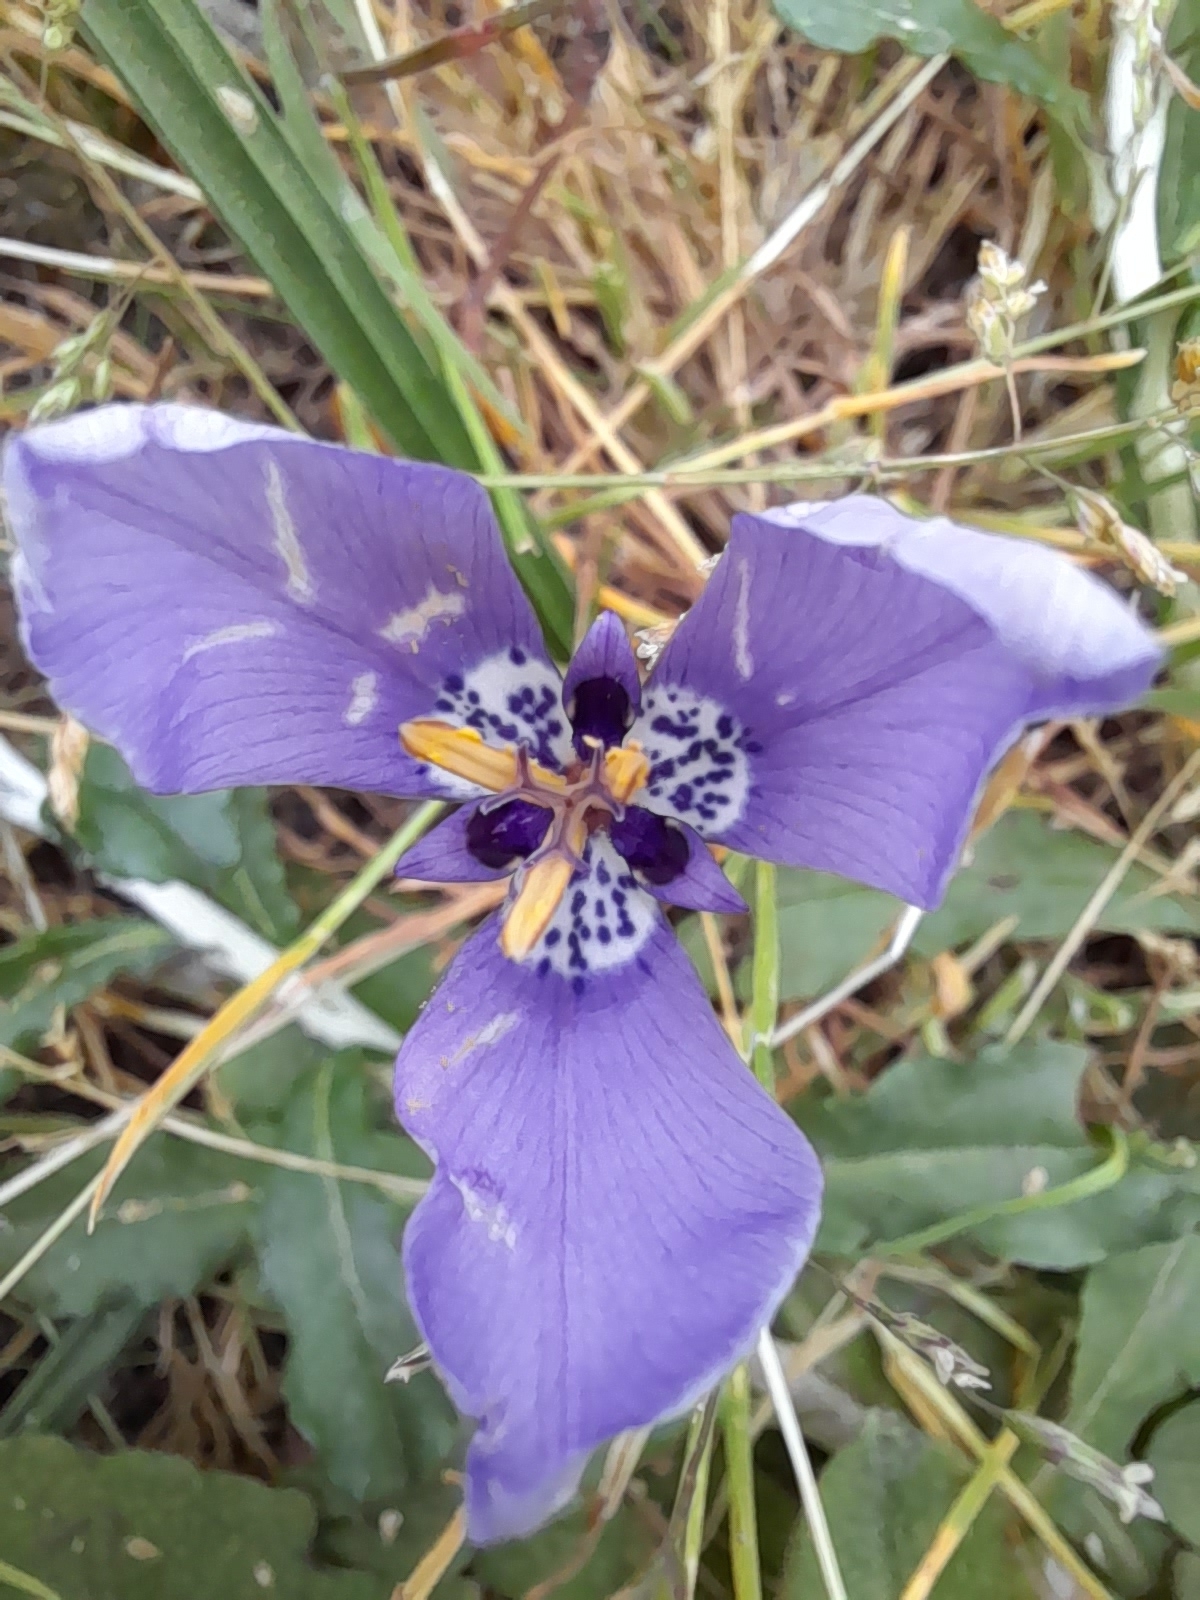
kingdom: Plantae
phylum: Tracheophyta
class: Liliopsida
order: Asparagales
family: Iridaceae
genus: Herbertia
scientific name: Herbertia lahue
